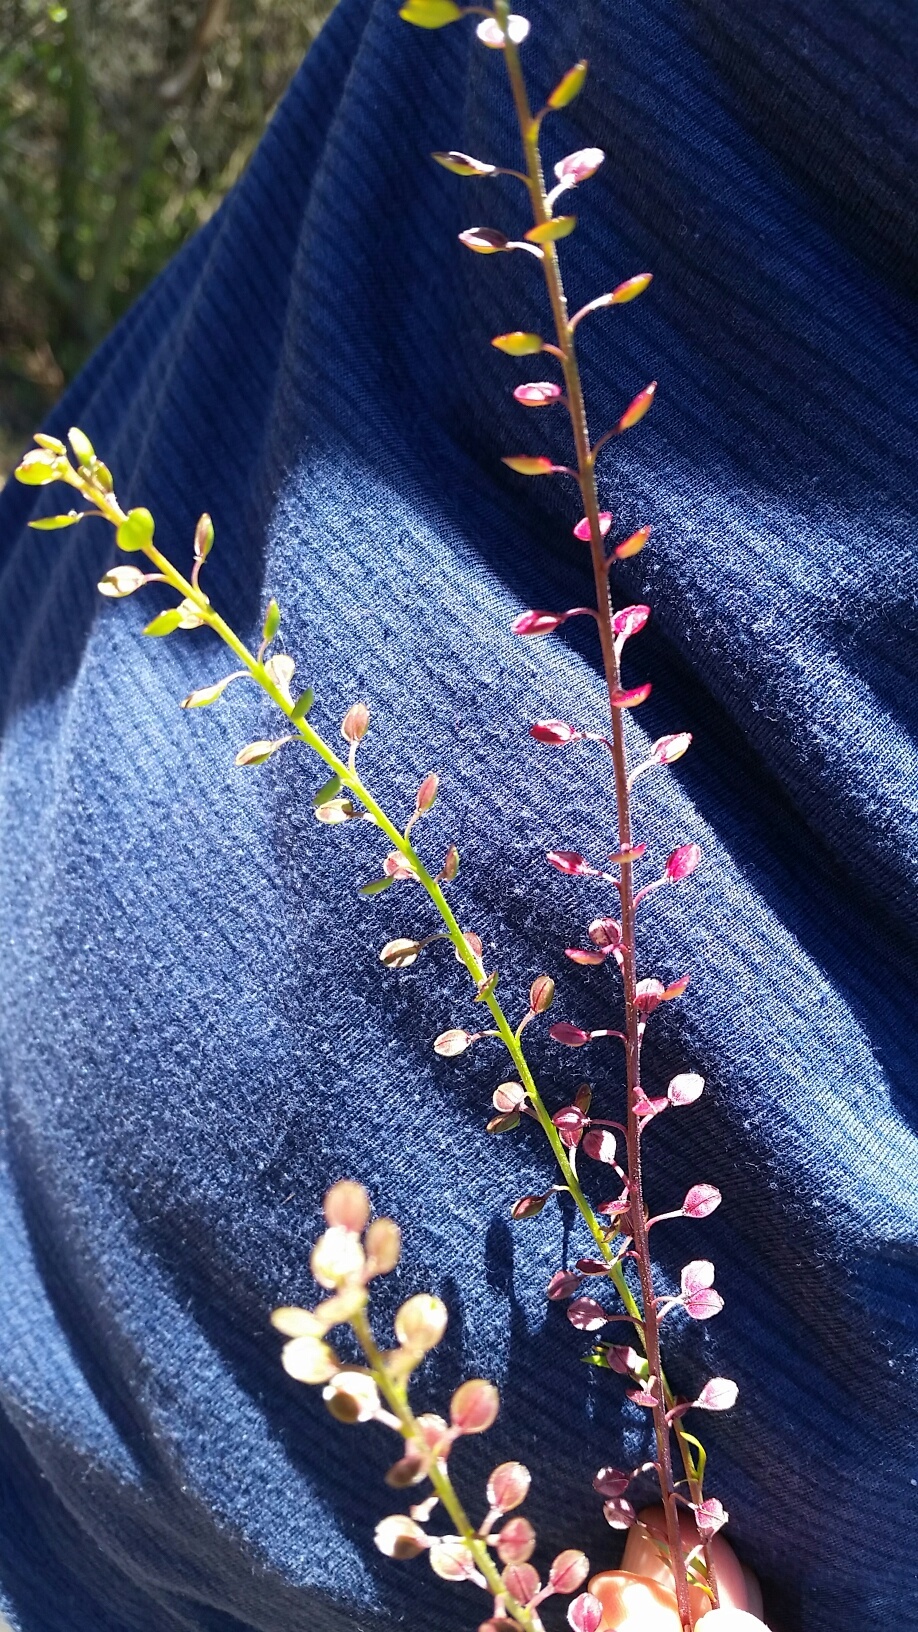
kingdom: Plantae
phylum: Tracheophyta
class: Magnoliopsida
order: Brassicales
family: Brassicaceae
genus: Lepidium
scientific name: Lepidium nitidum
